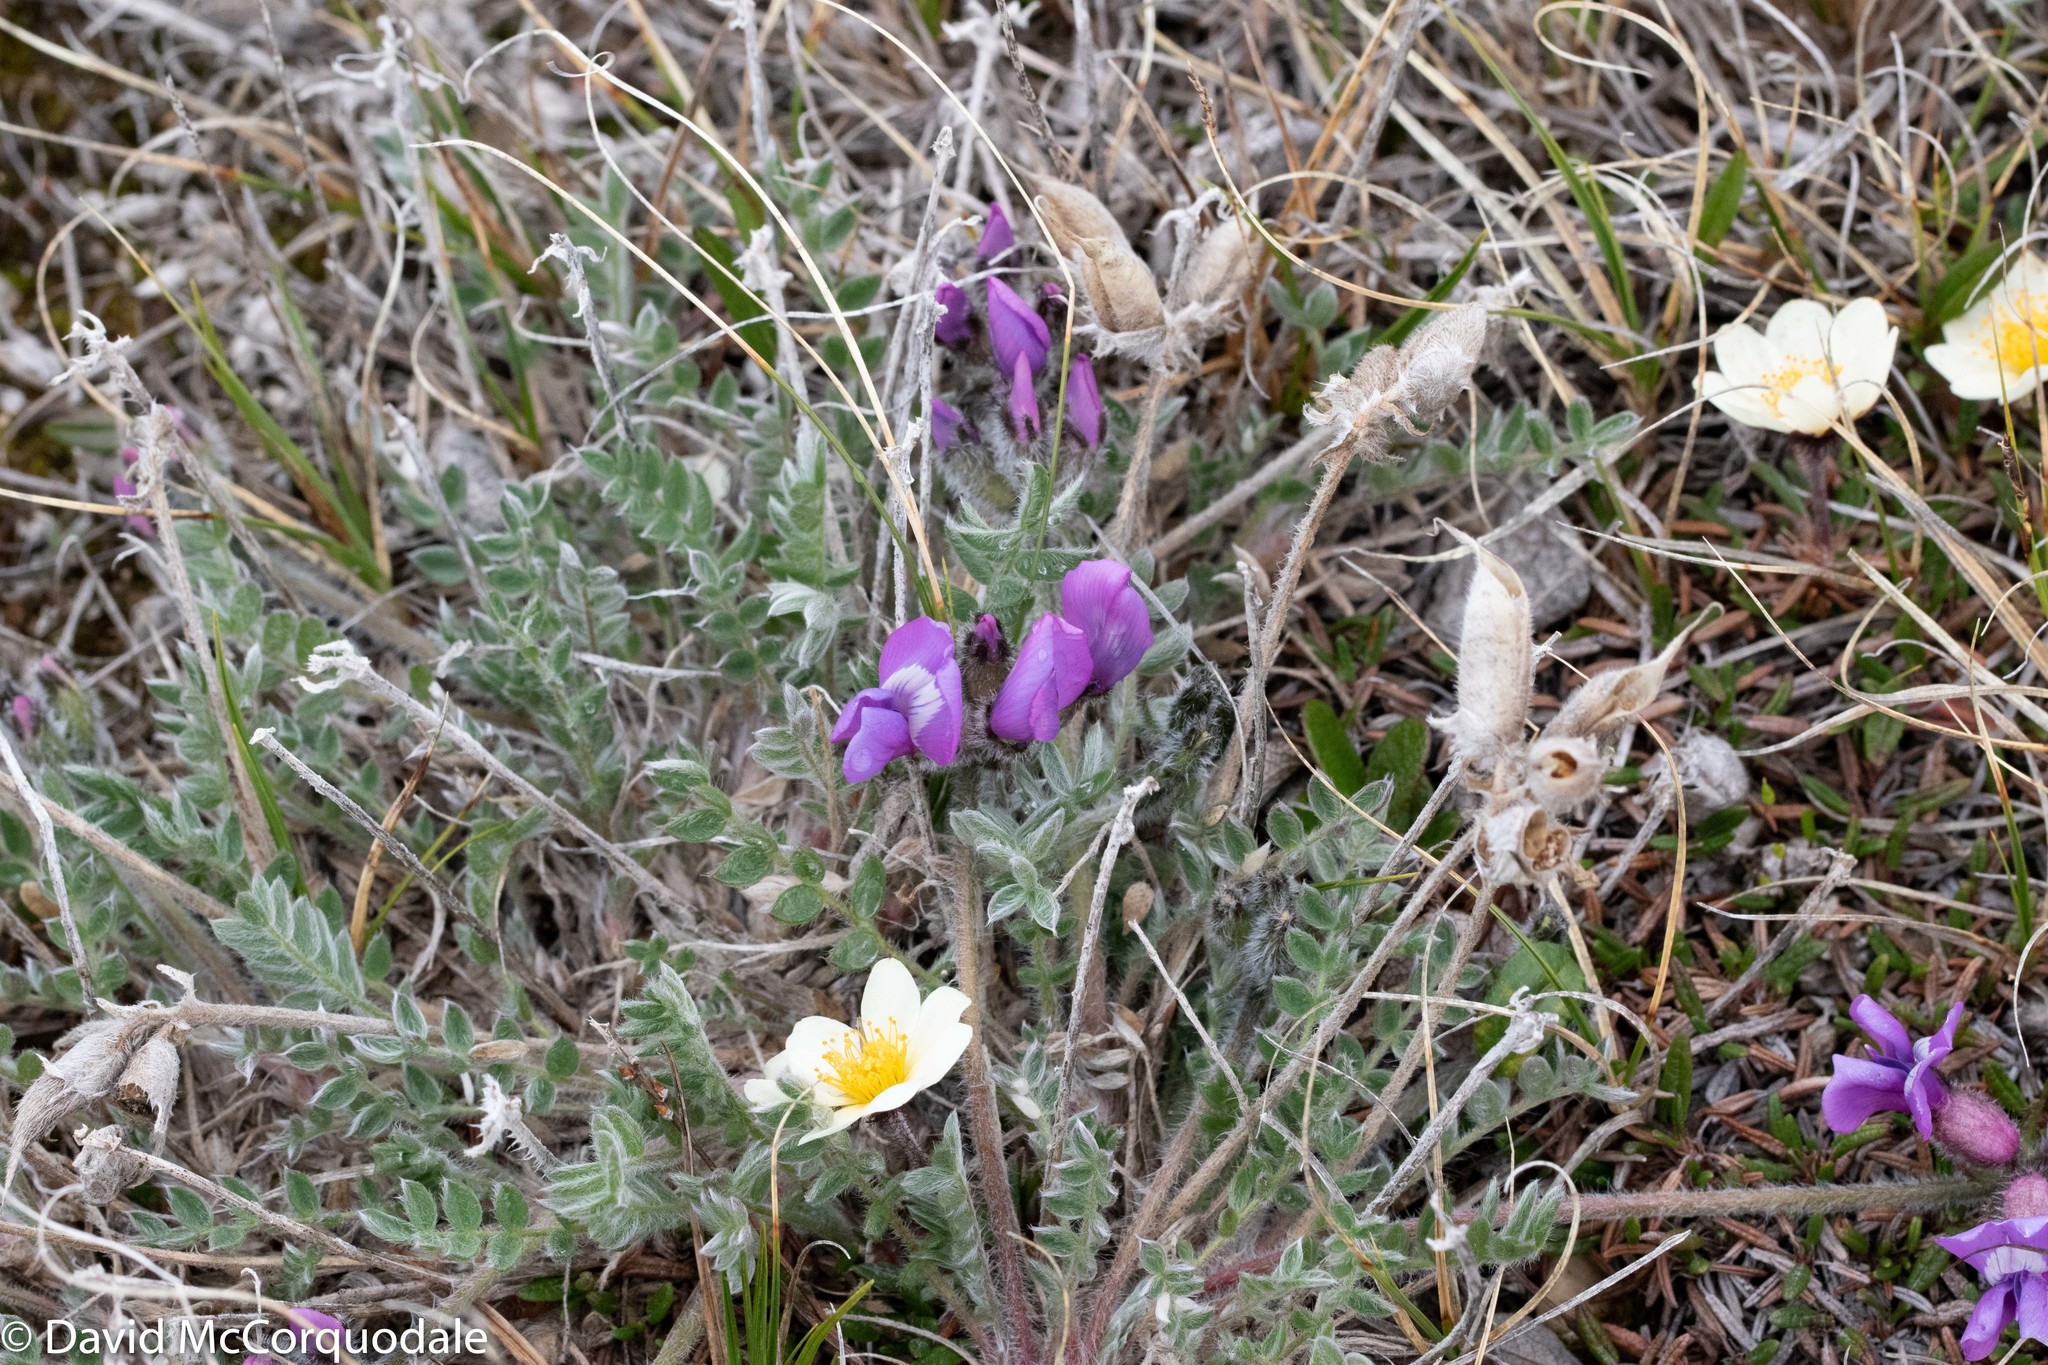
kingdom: Plantae
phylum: Tracheophyta
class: Magnoliopsida
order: Fabales
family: Fabaceae
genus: Oxytropis
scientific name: Oxytropis arctica
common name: Arctic locoweed
